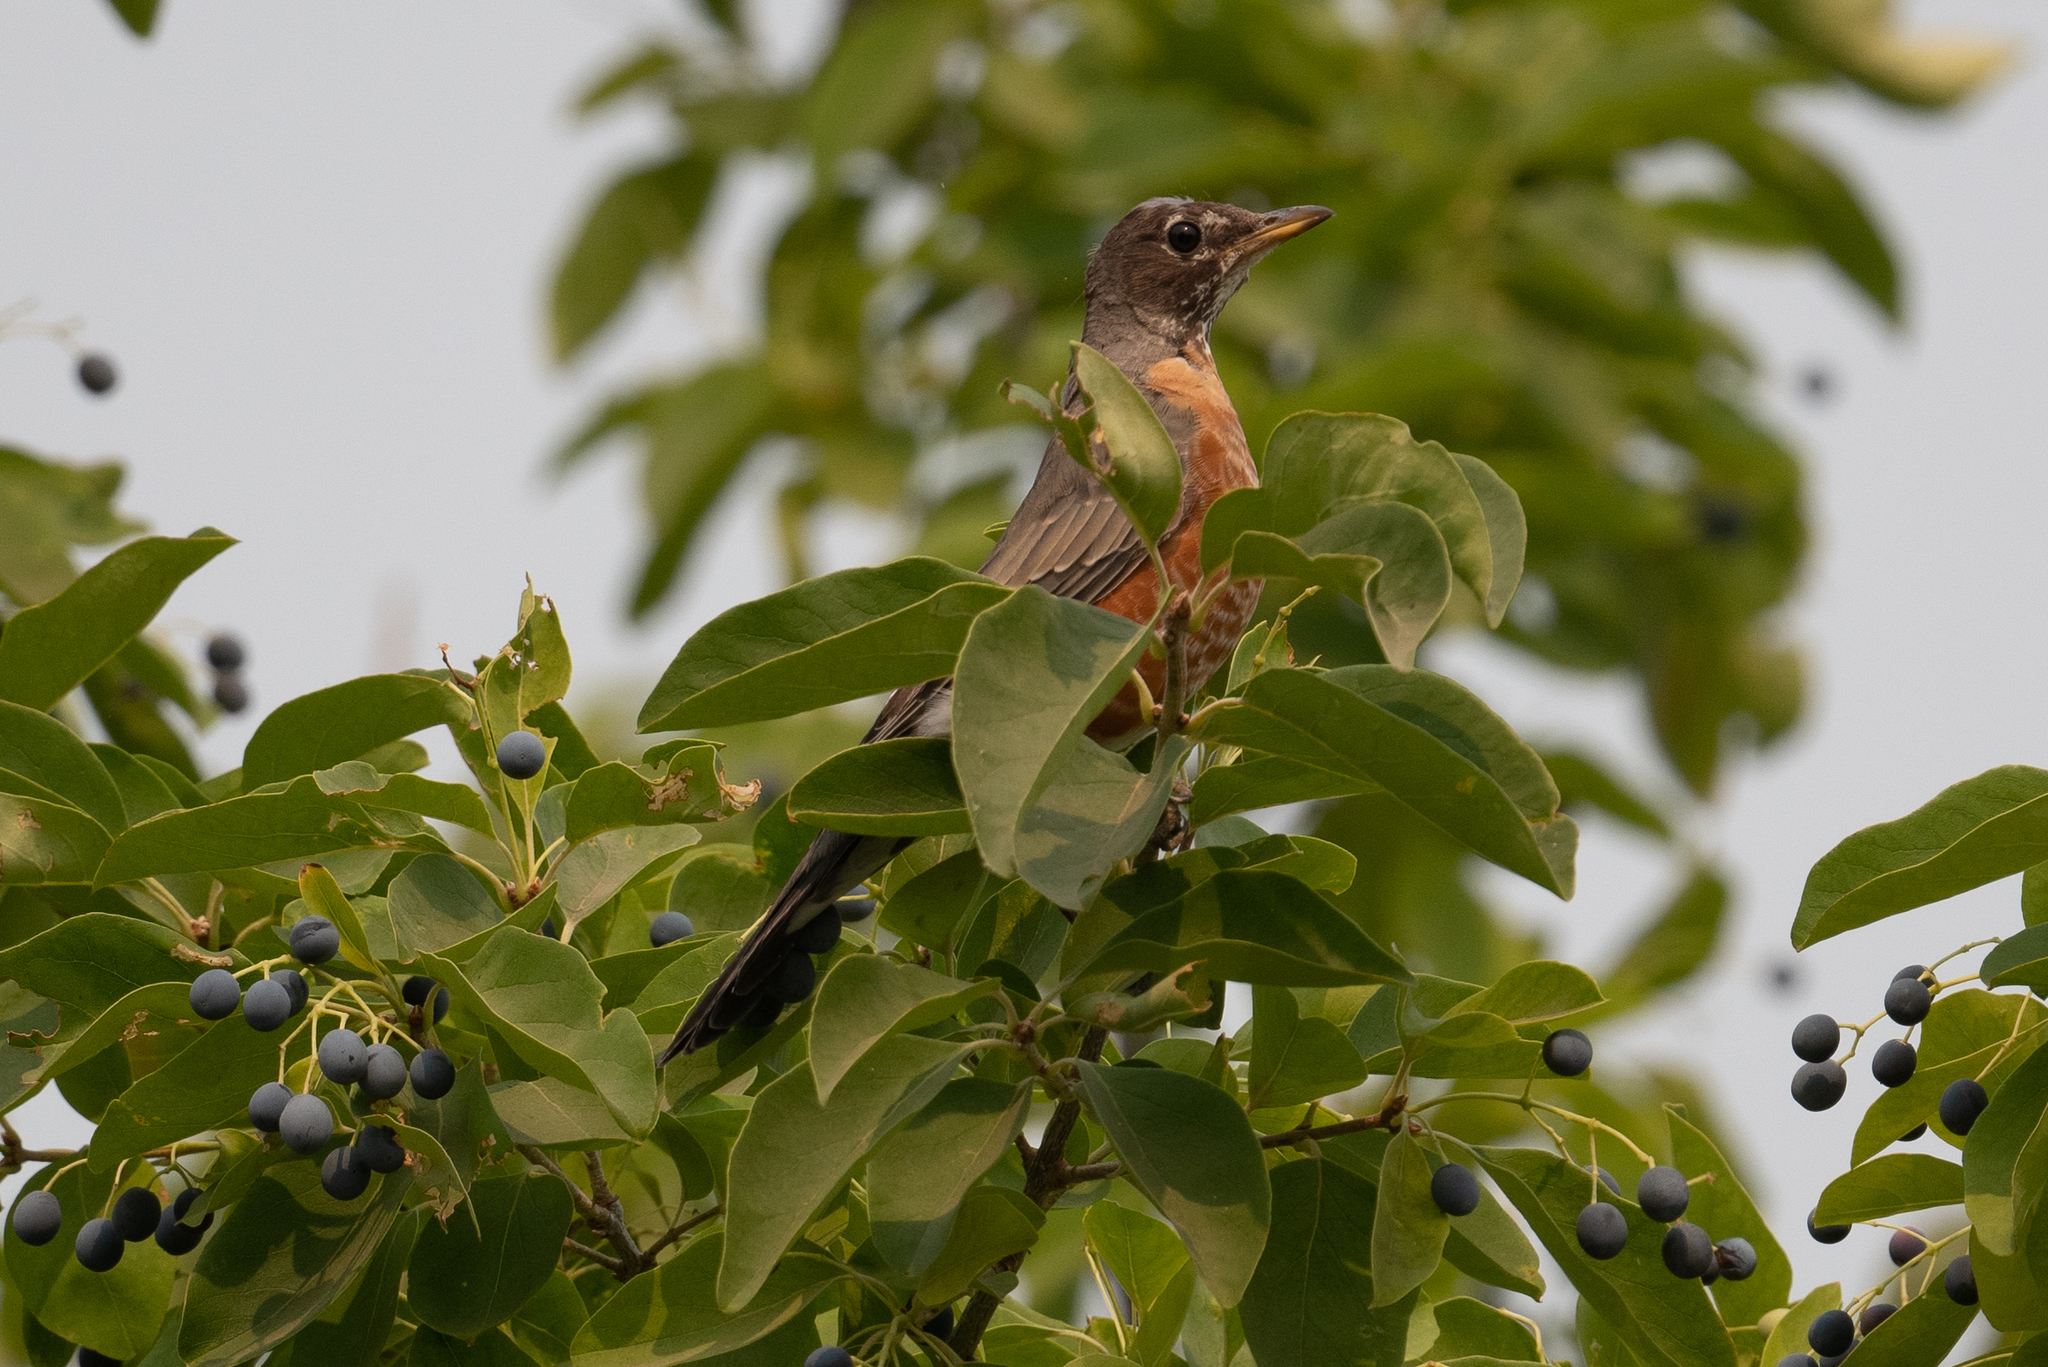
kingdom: Animalia
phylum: Chordata
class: Aves
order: Passeriformes
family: Turdidae
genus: Turdus
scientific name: Turdus migratorius
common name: American robin
